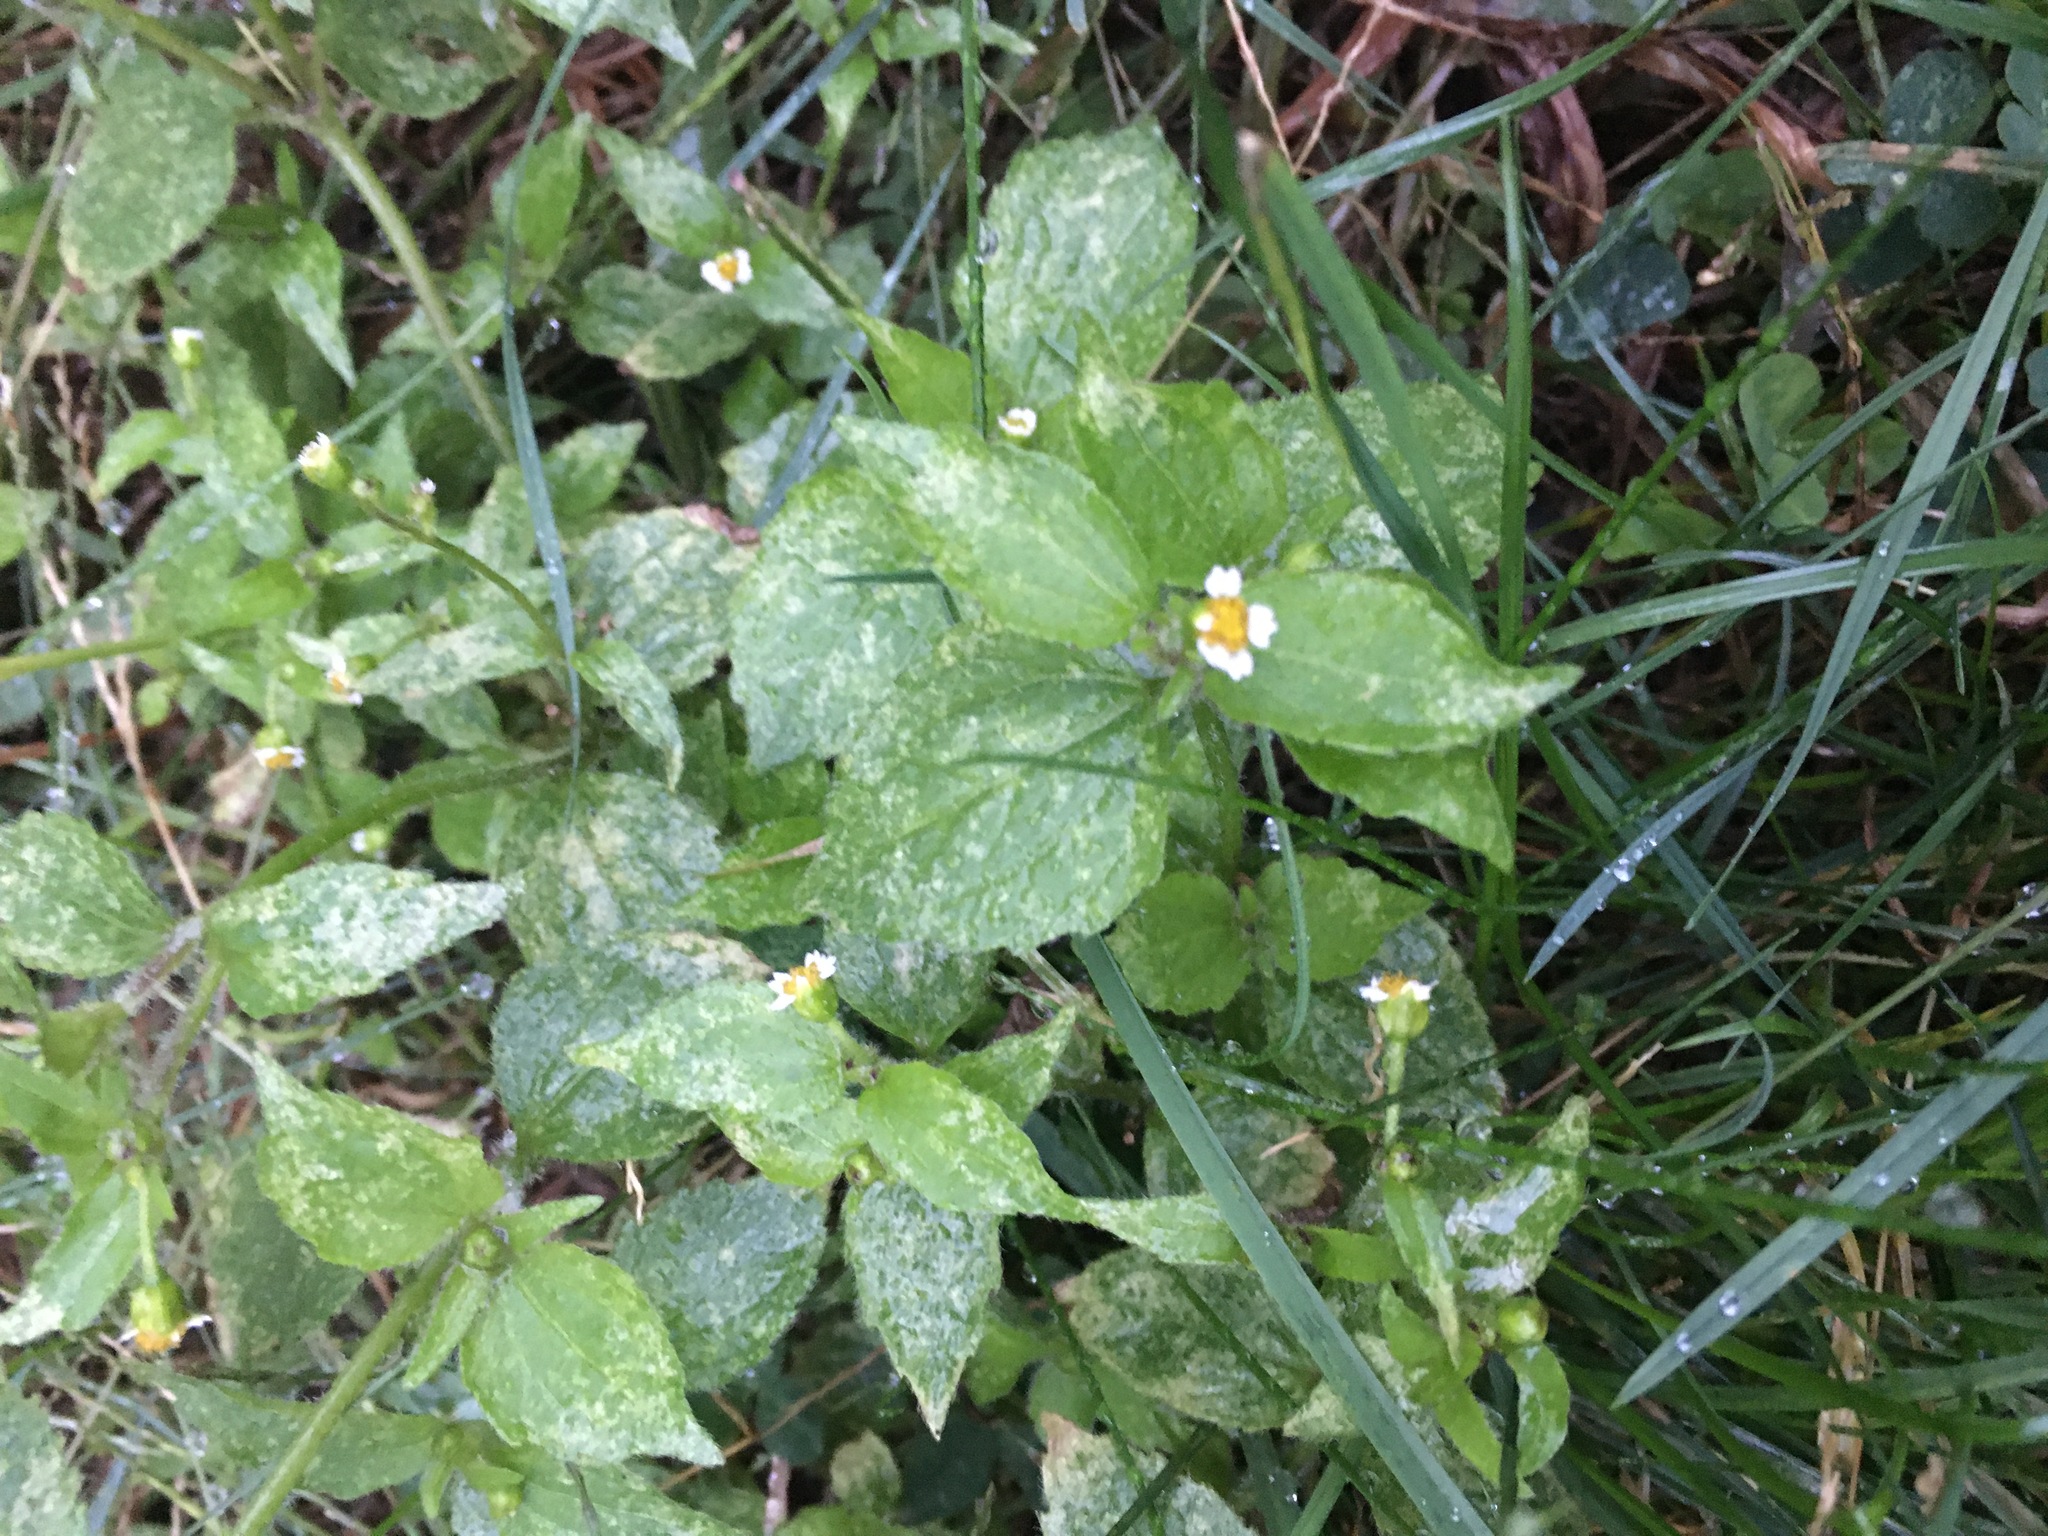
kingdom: Plantae
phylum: Tracheophyta
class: Magnoliopsida
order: Asterales
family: Asteraceae
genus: Galinsoga
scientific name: Galinsoga quadriradiata
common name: Shaggy soldier
